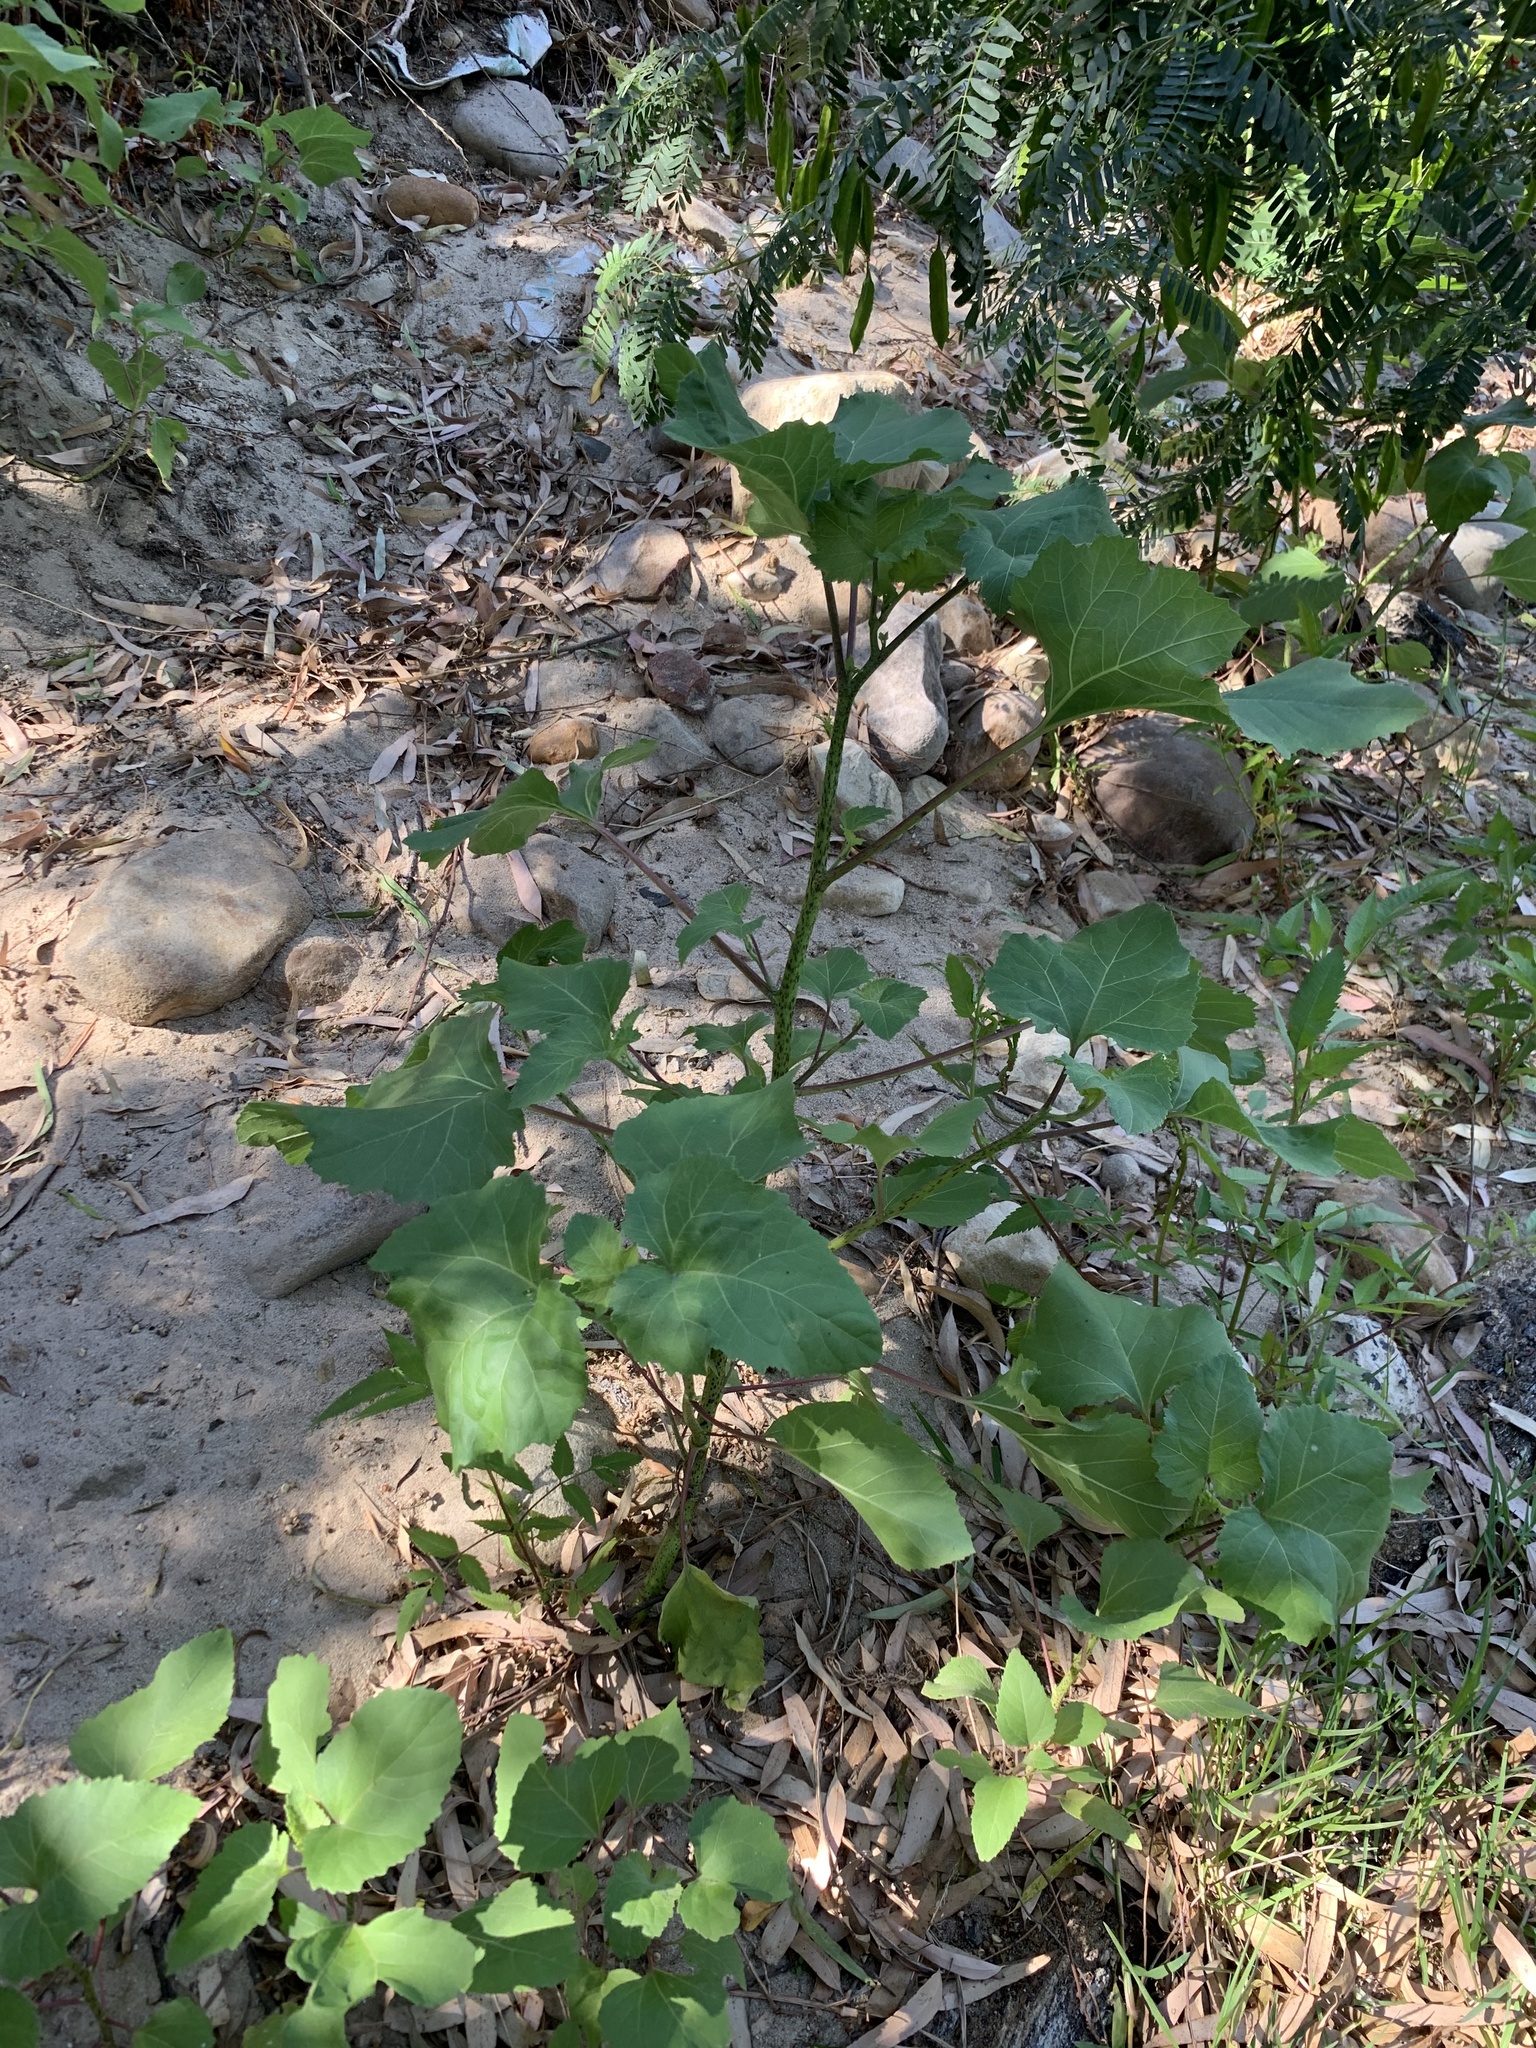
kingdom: Plantae
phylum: Tracheophyta
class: Magnoliopsida
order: Asterales
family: Asteraceae
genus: Xanthium
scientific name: Xanthium strumarium
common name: Rough cocklebur
